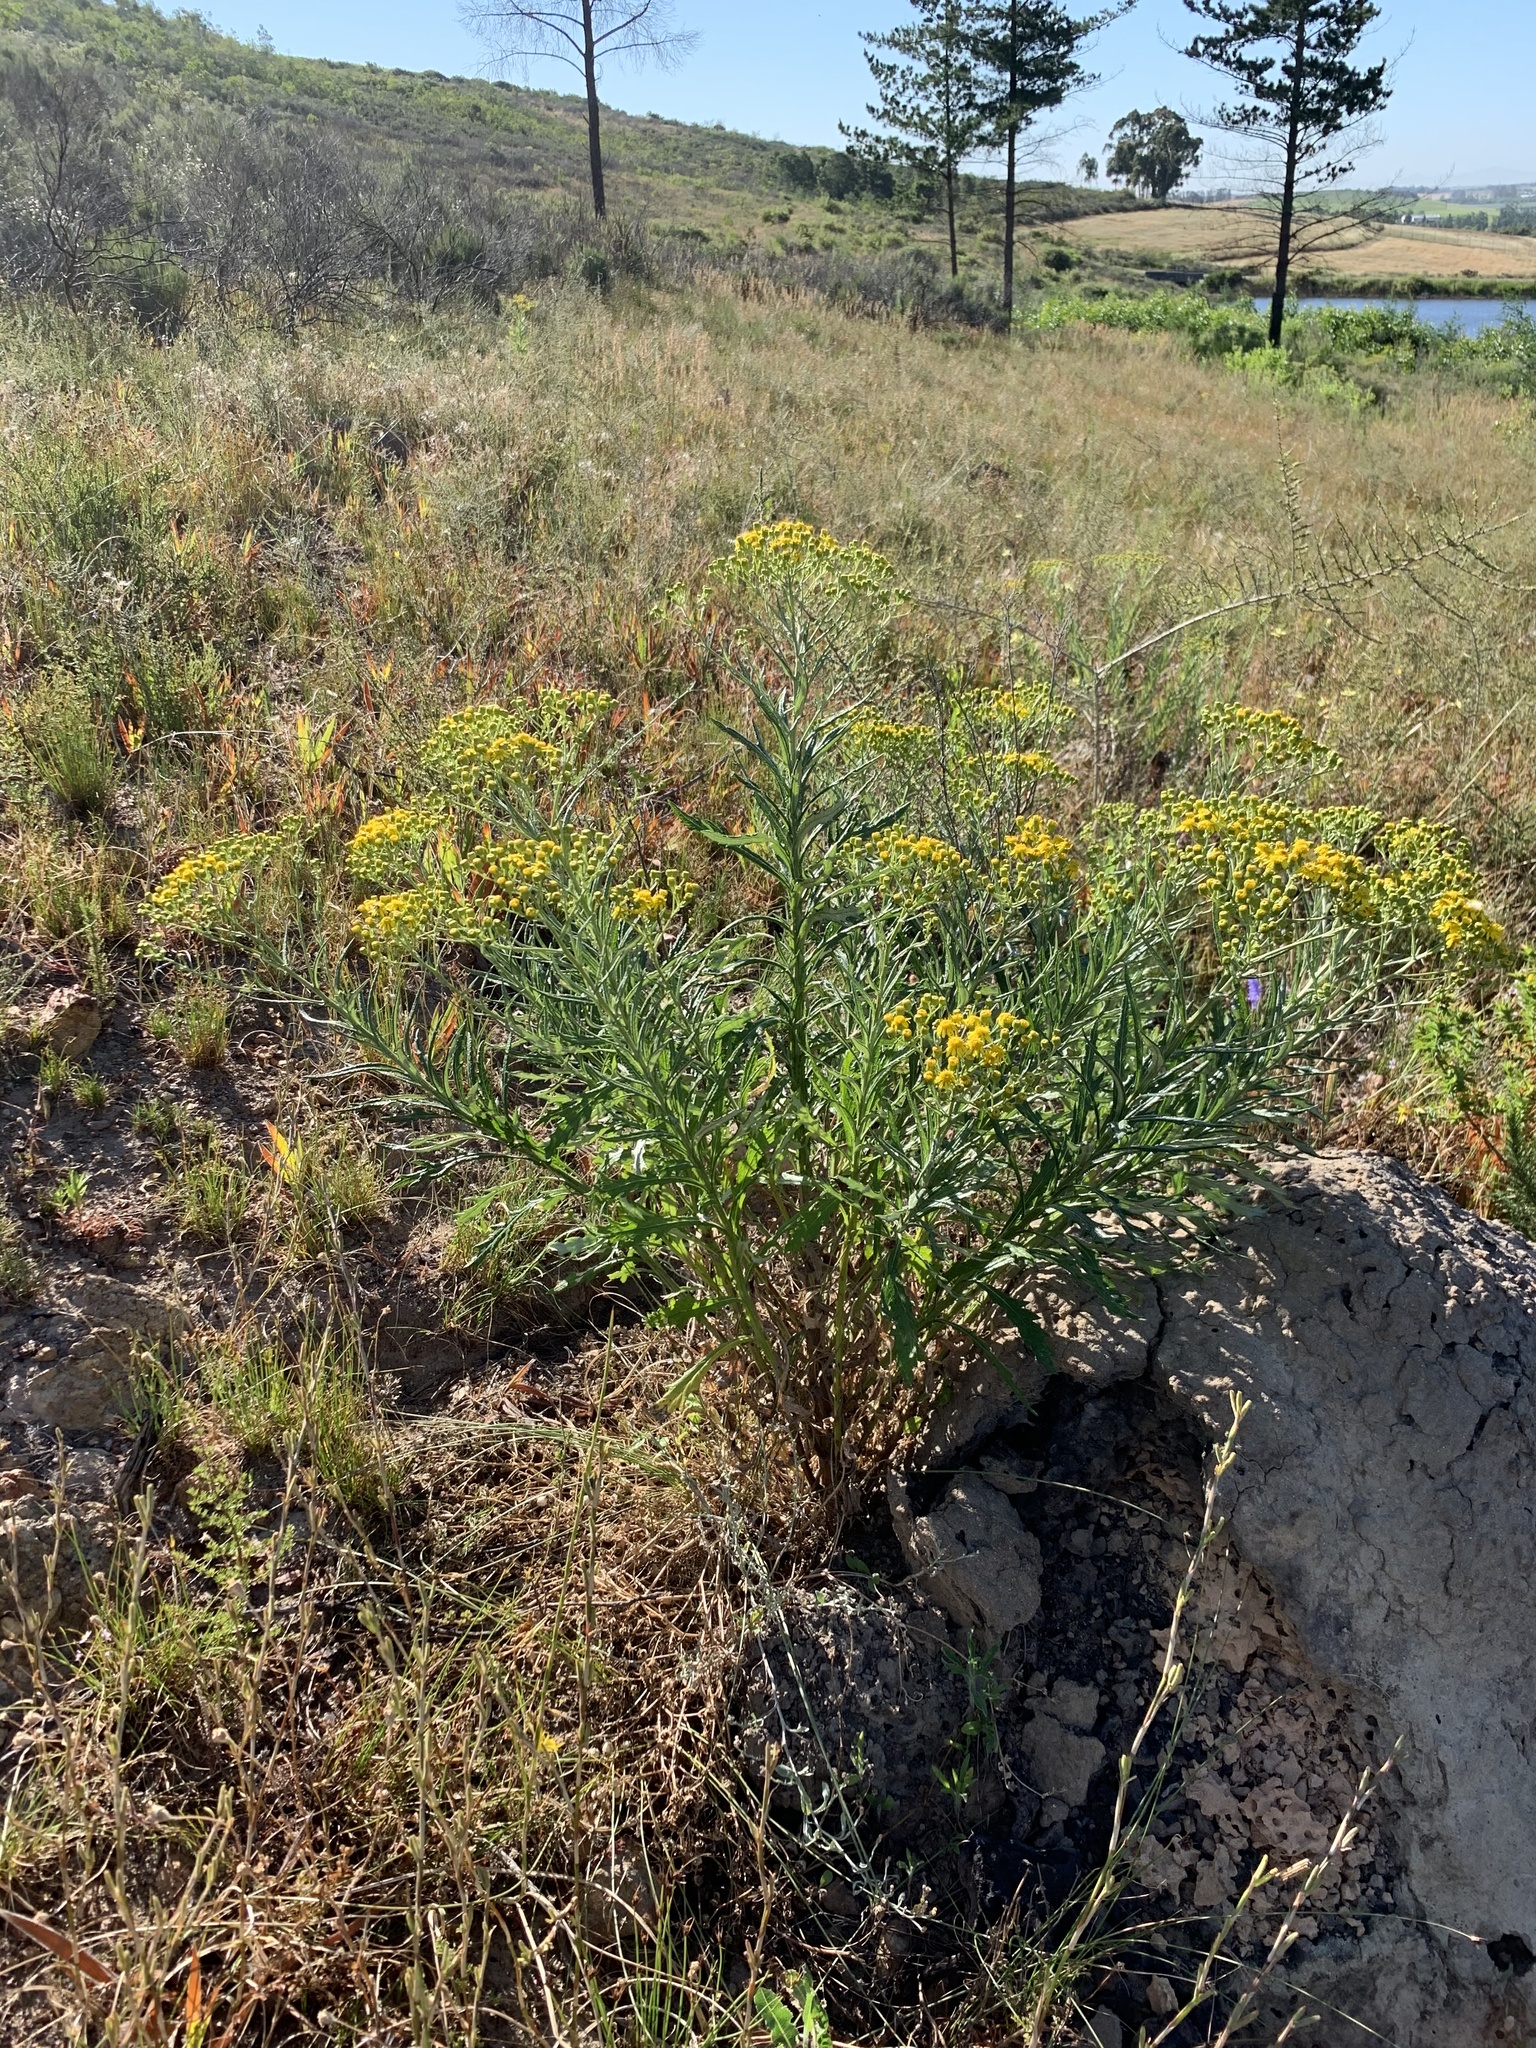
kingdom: Plantae
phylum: Tracheophyta
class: Magnoliopsida
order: Asterales
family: Asteraceae
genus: Senecio
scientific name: Senecio pterophorus
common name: Shoddy ragwort
